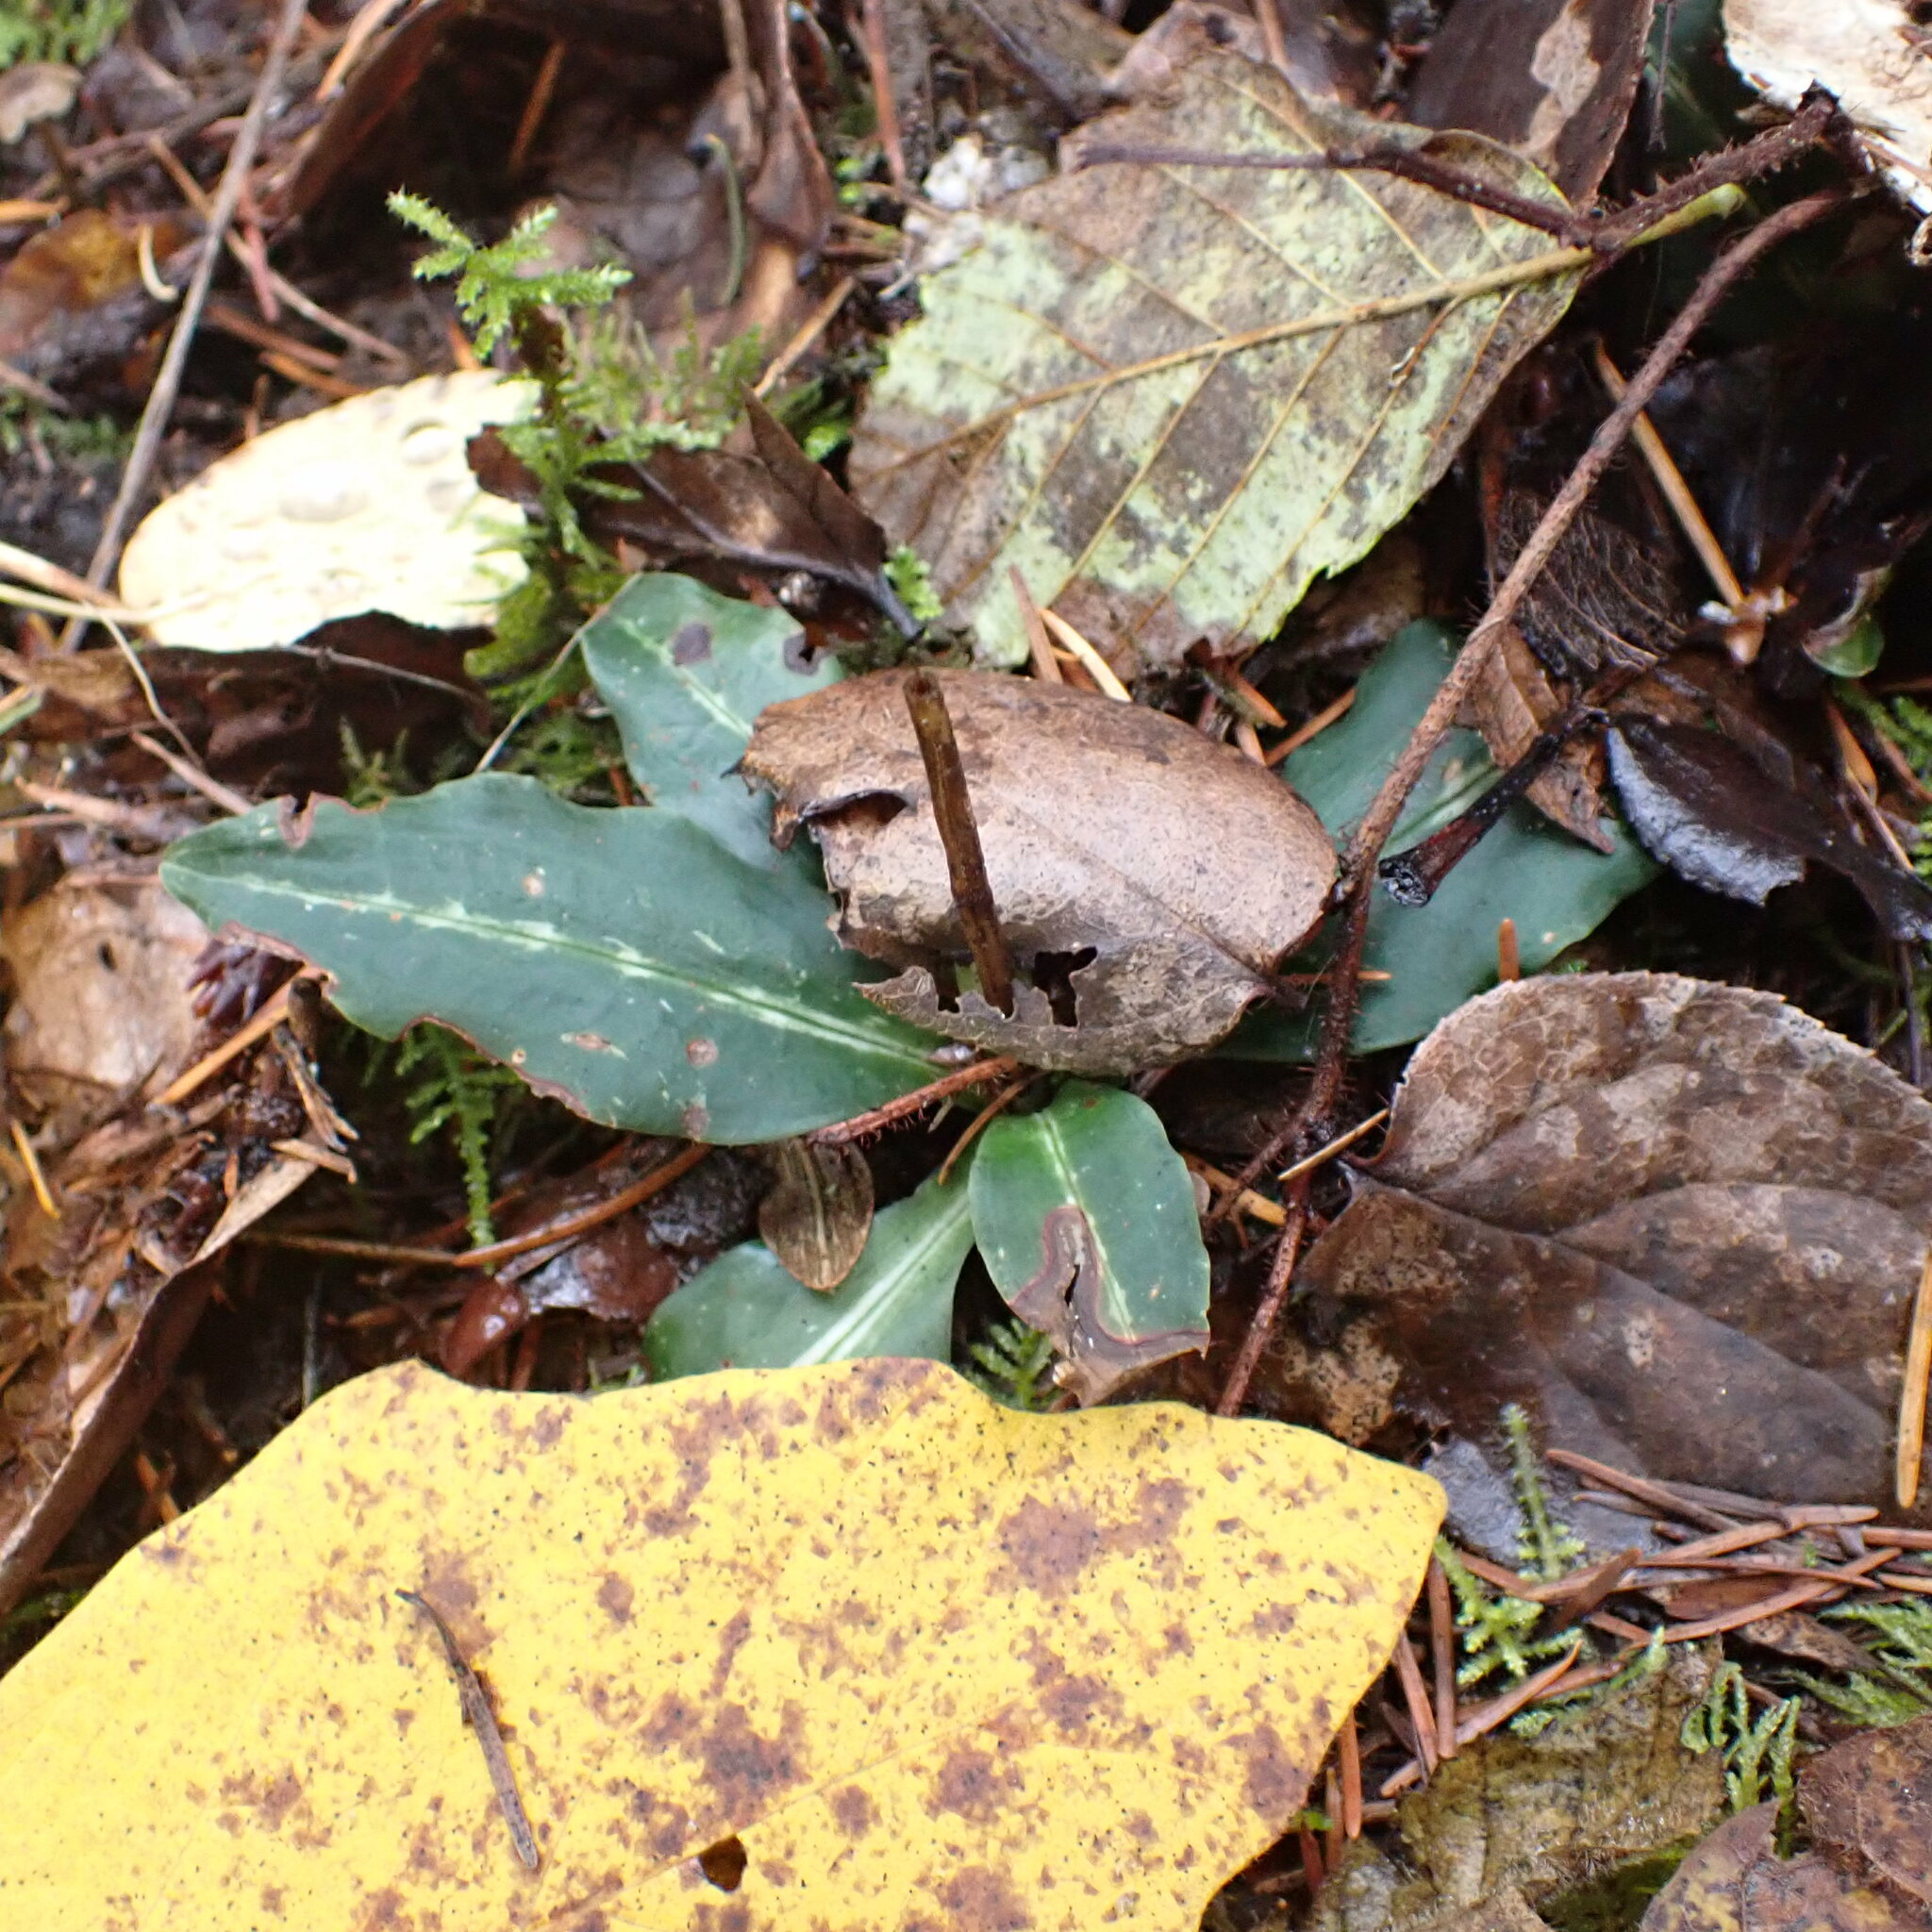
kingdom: Plantae
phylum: Tracheophyta
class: Liliopsida
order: Asparagales
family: Orchidaceae
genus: Goodyera
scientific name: Goodyera oblongifolia
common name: Giant rattlesnake-plantain
